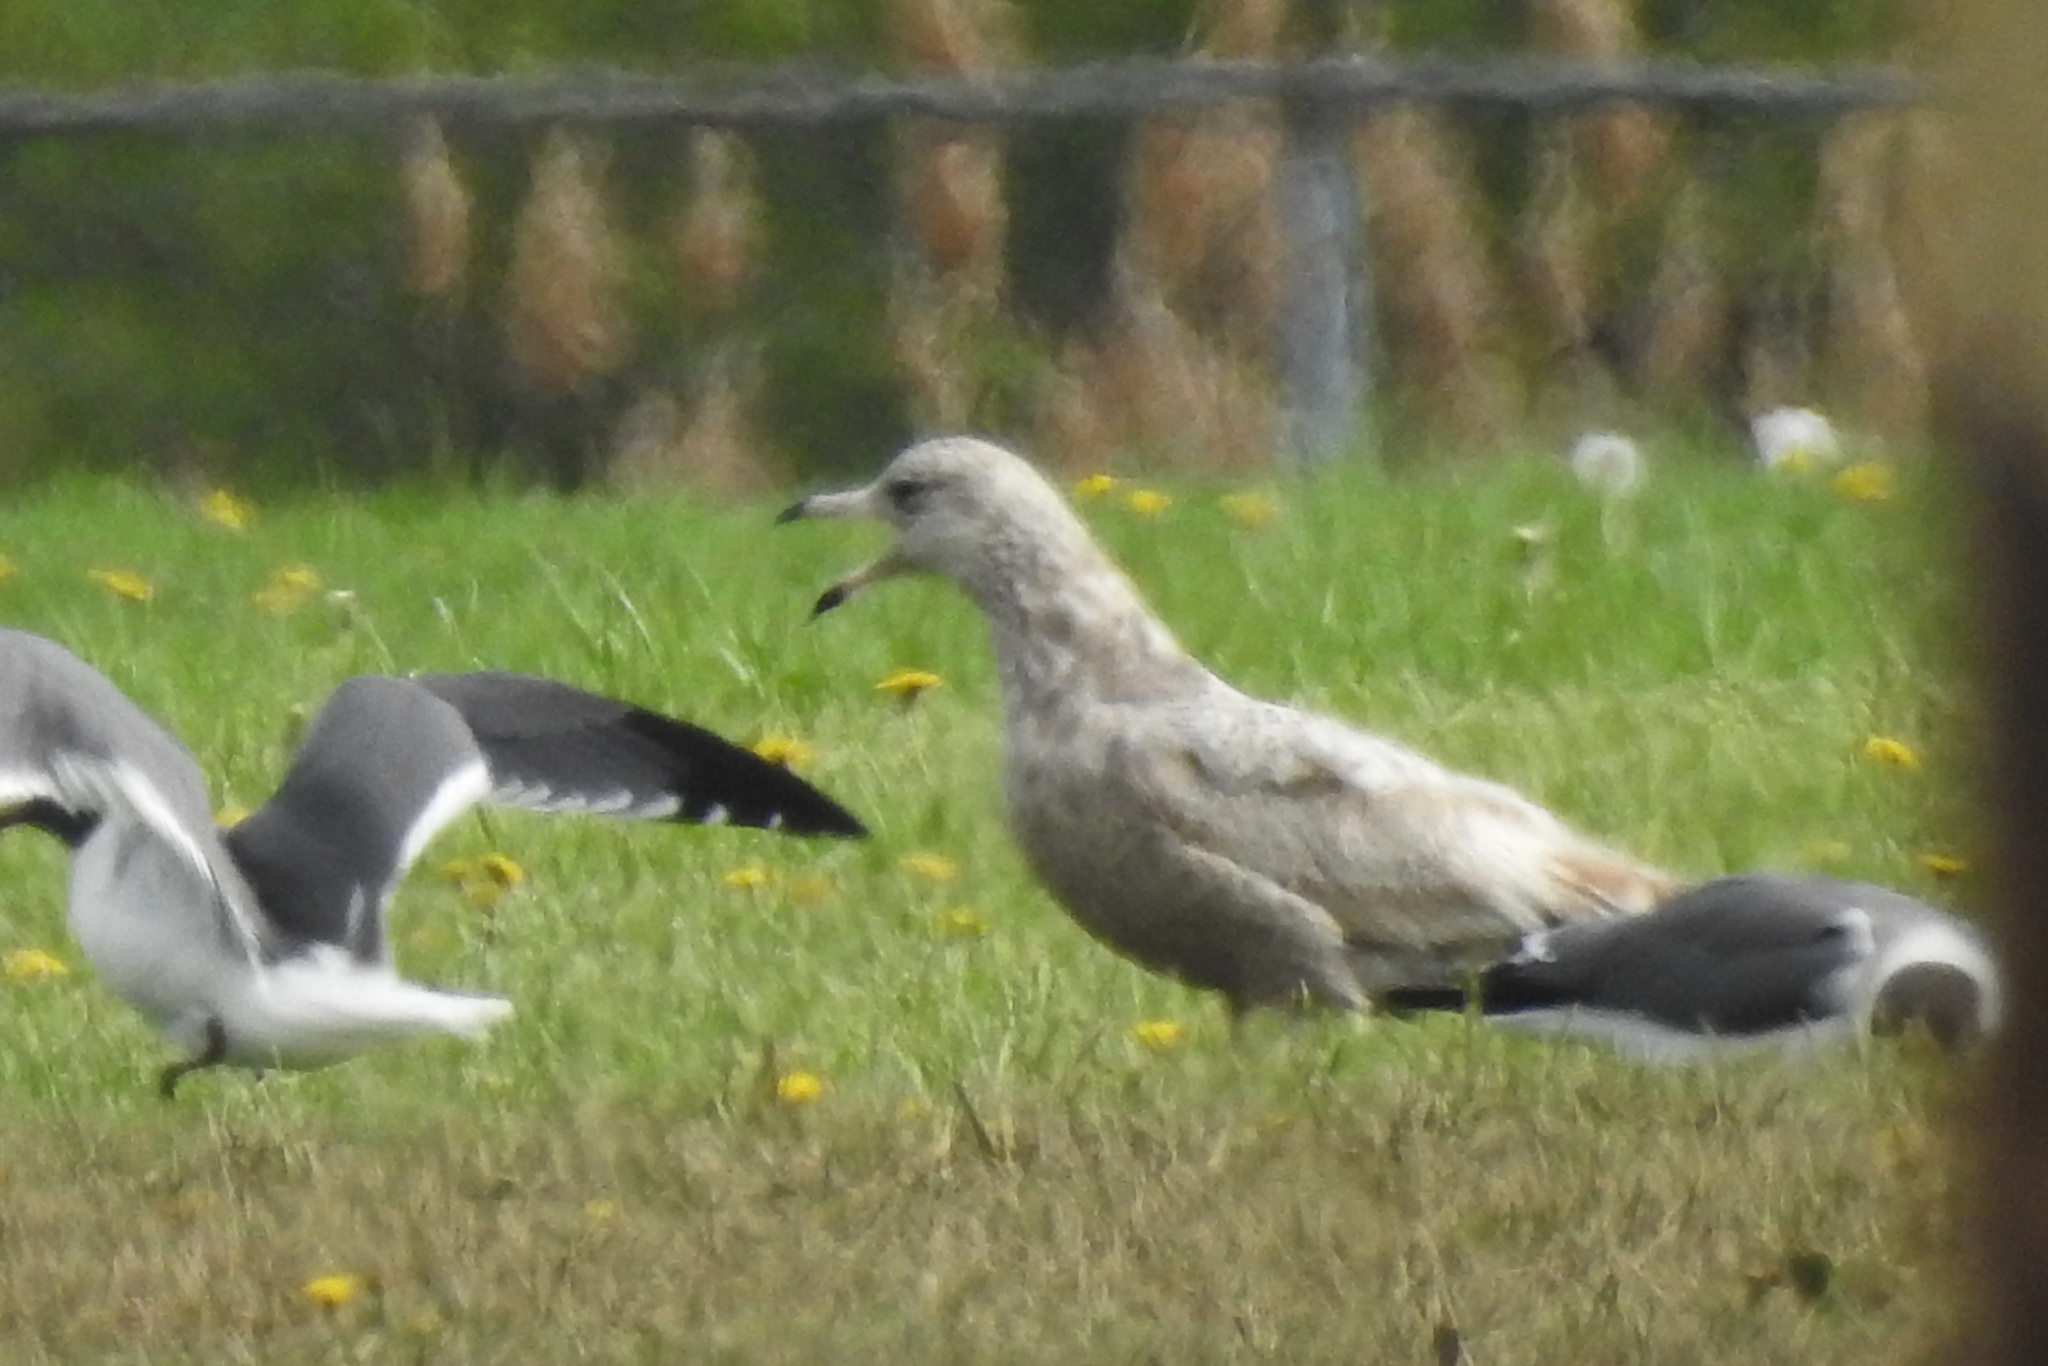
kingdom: Animalia
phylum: Chordata
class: Aves
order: Charadriiformes
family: Laridae
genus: Larus
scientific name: Larus argentatus
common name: Herring gull
